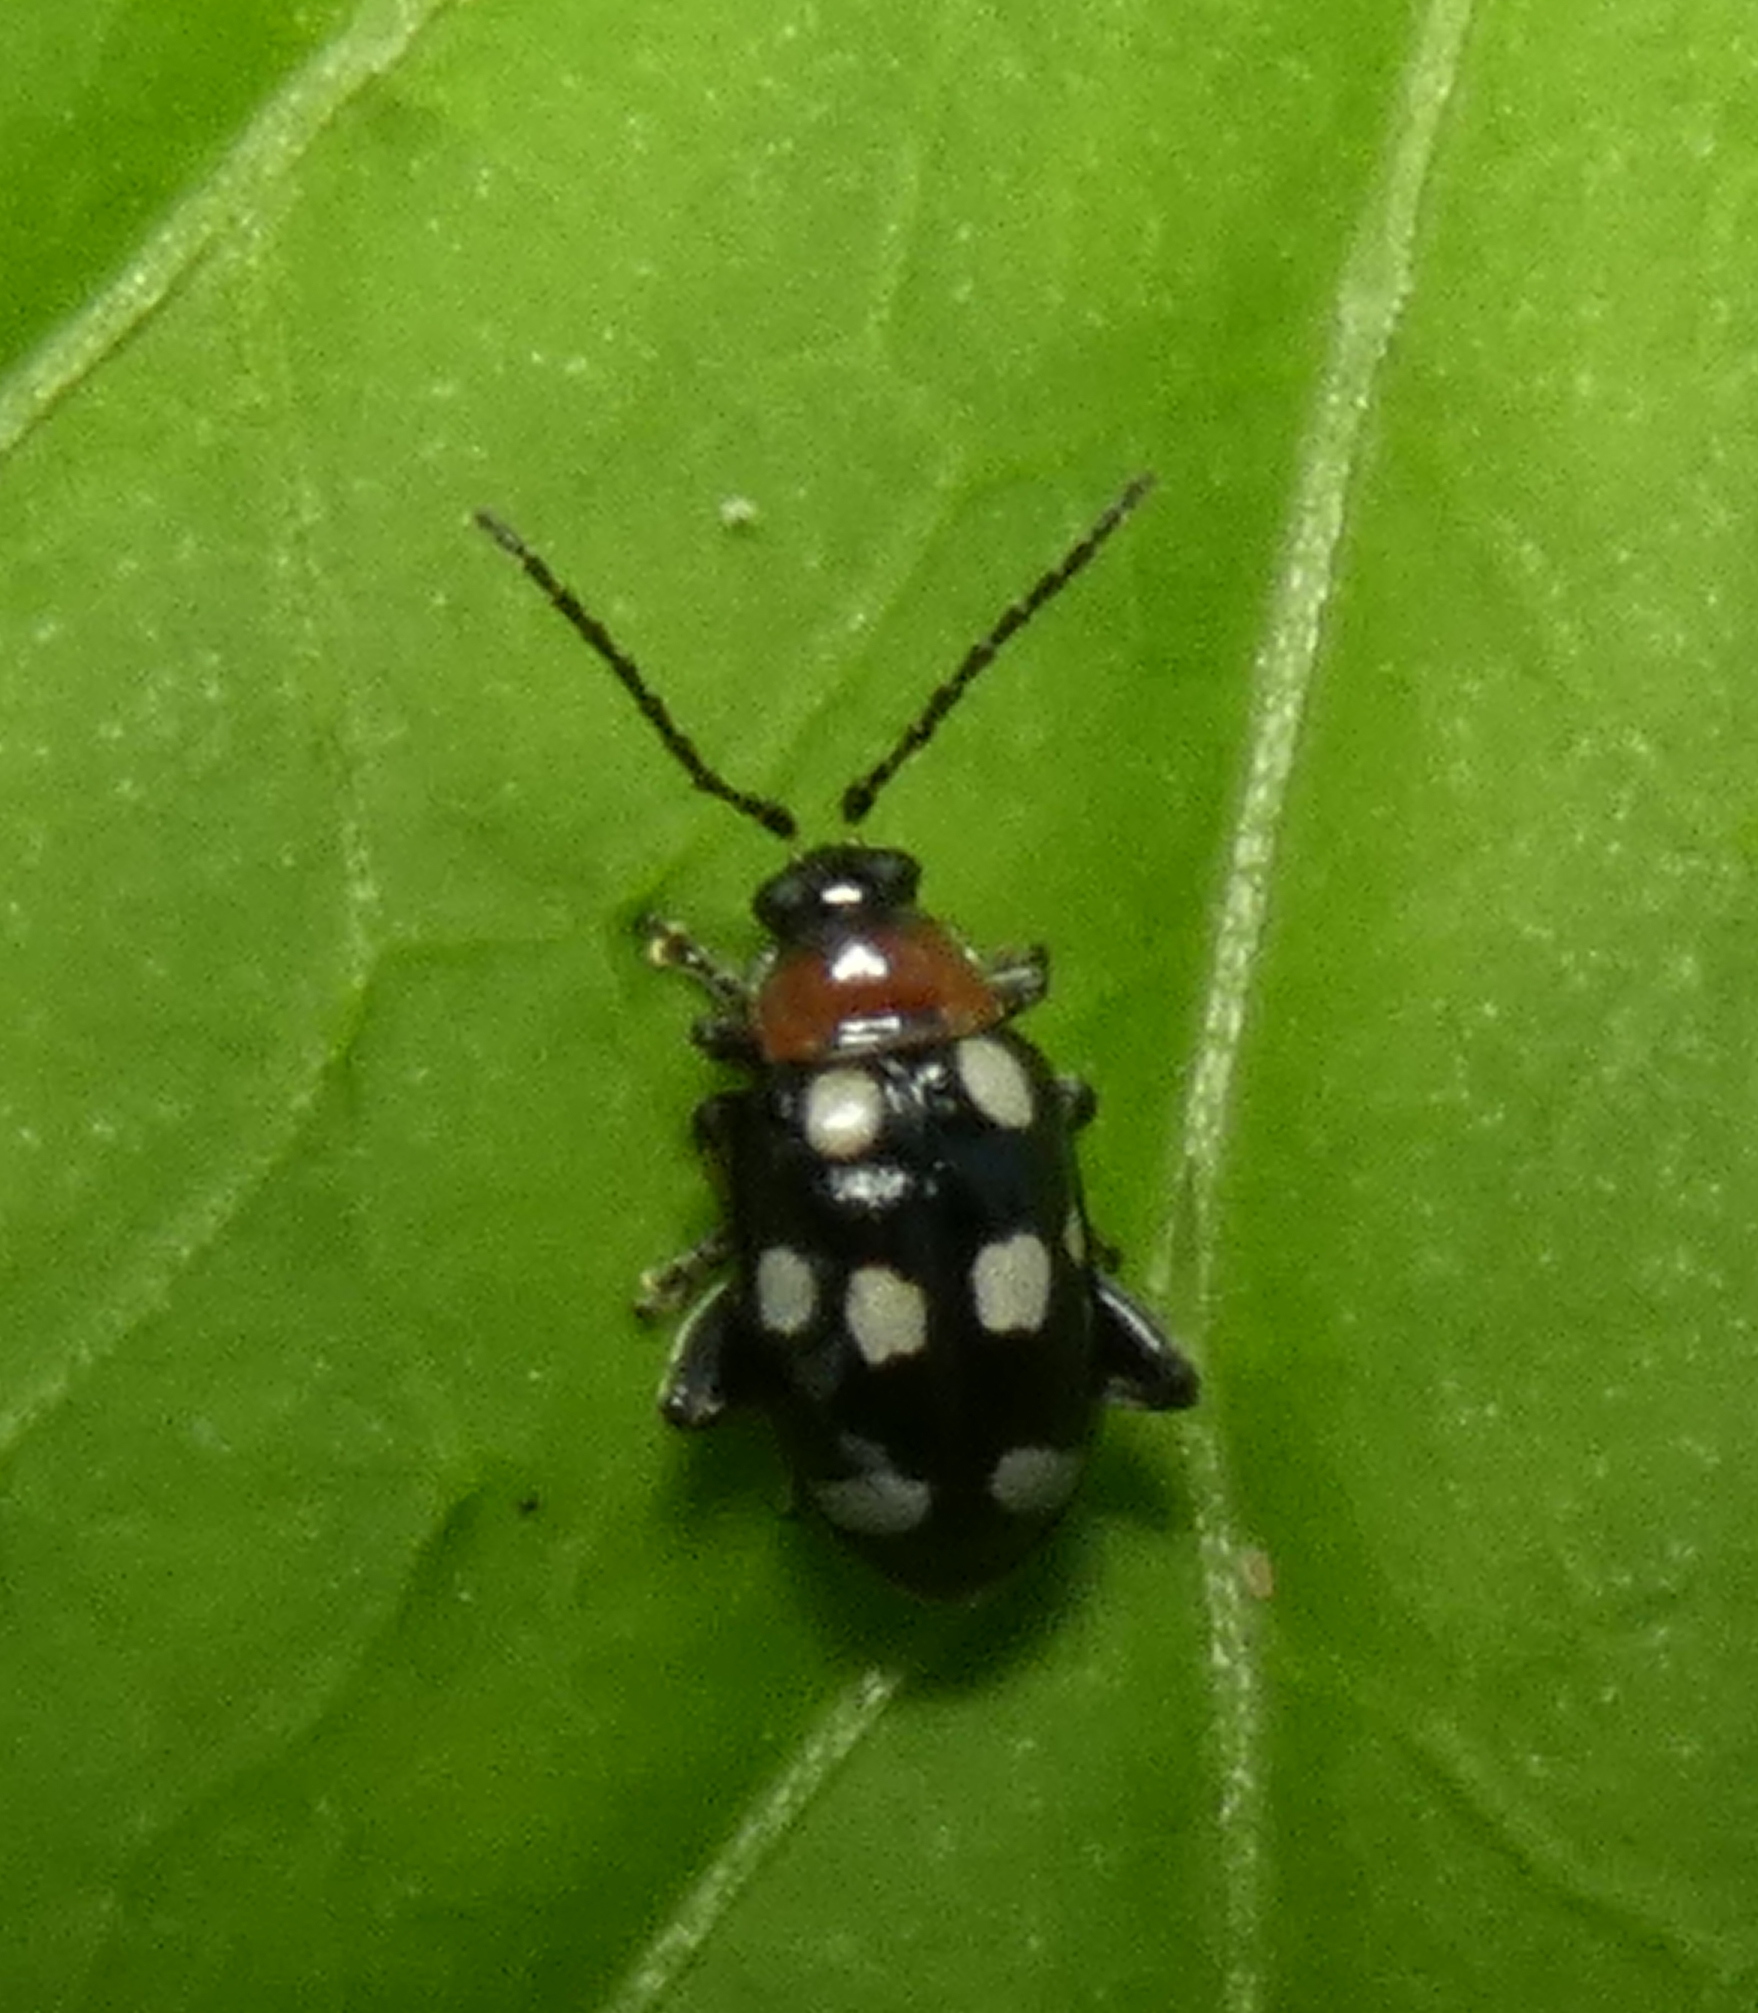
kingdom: Animalia
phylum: Arthropoda
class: Insecta
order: Coleoptera
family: Chrysomelidae
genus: Phenrica
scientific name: Phenrica austriaca
